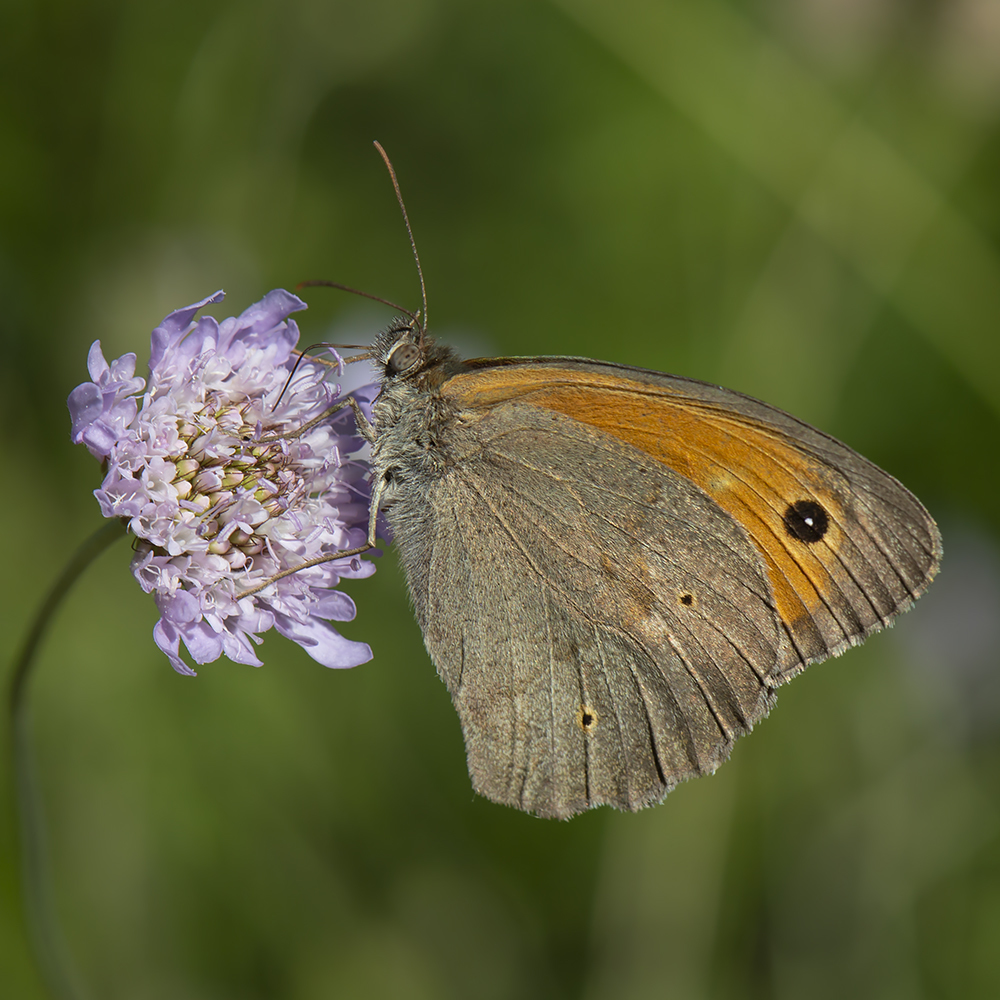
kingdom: Animalia
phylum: Arthropoda
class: Insecta
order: Lepidoptera
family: Nymphalidae
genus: Maniola
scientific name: Maniola jurtina
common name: Meadow brown
